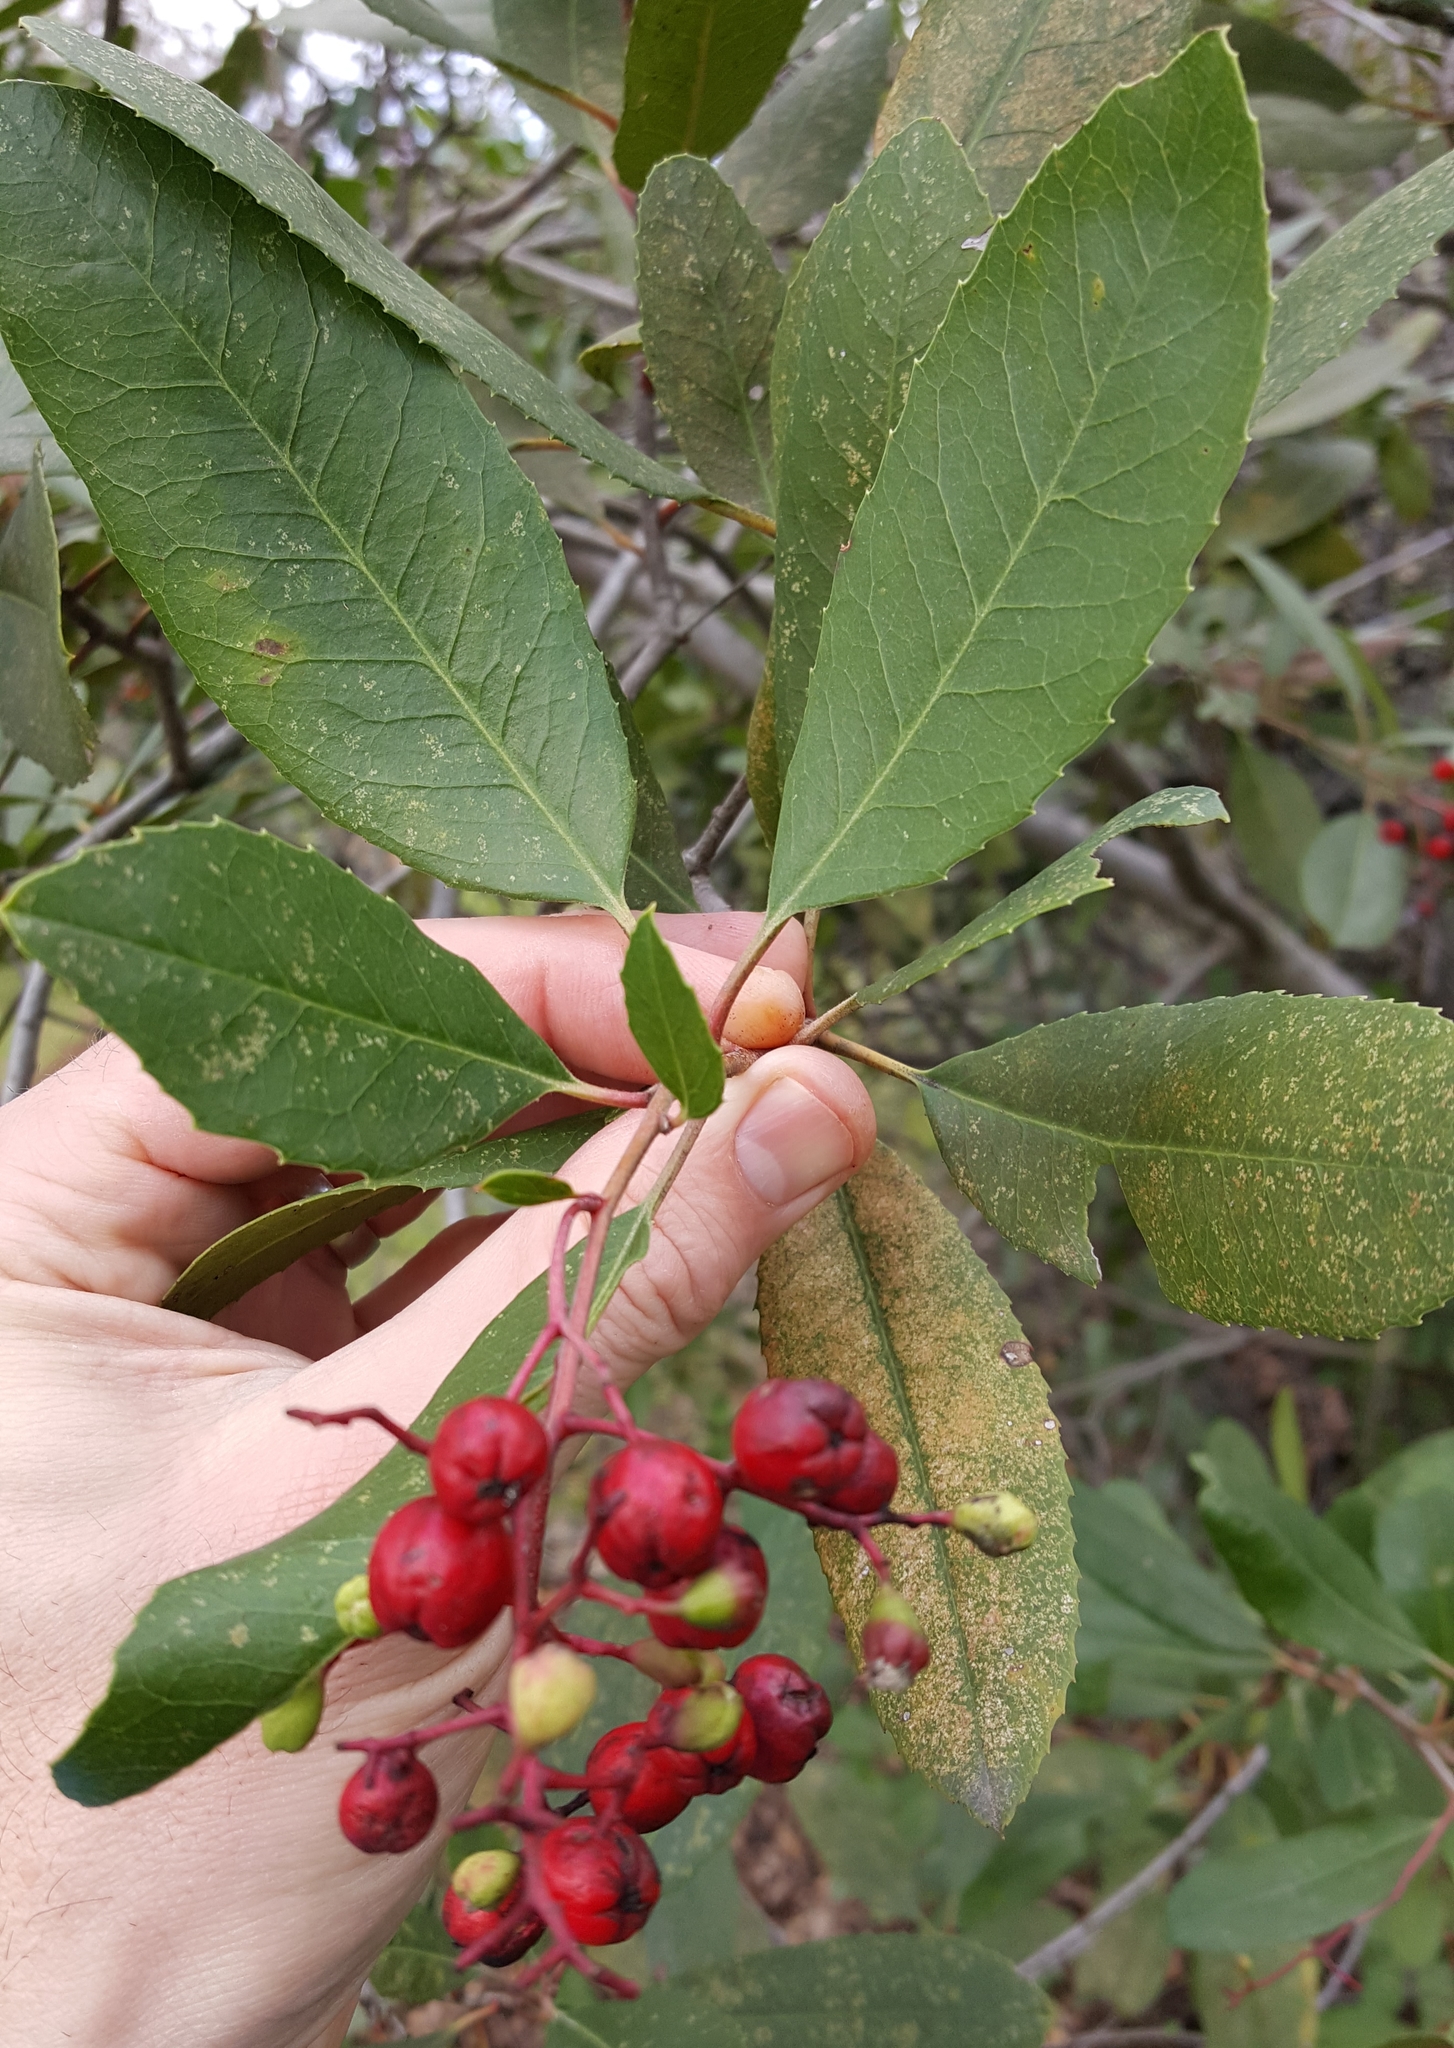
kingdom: Plantae
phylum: Tracheophyta
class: Magnoliopsida
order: Rosales
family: Rosaceae
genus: Heteromeles
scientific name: Heteromeles arbutifolia
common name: California-holly
